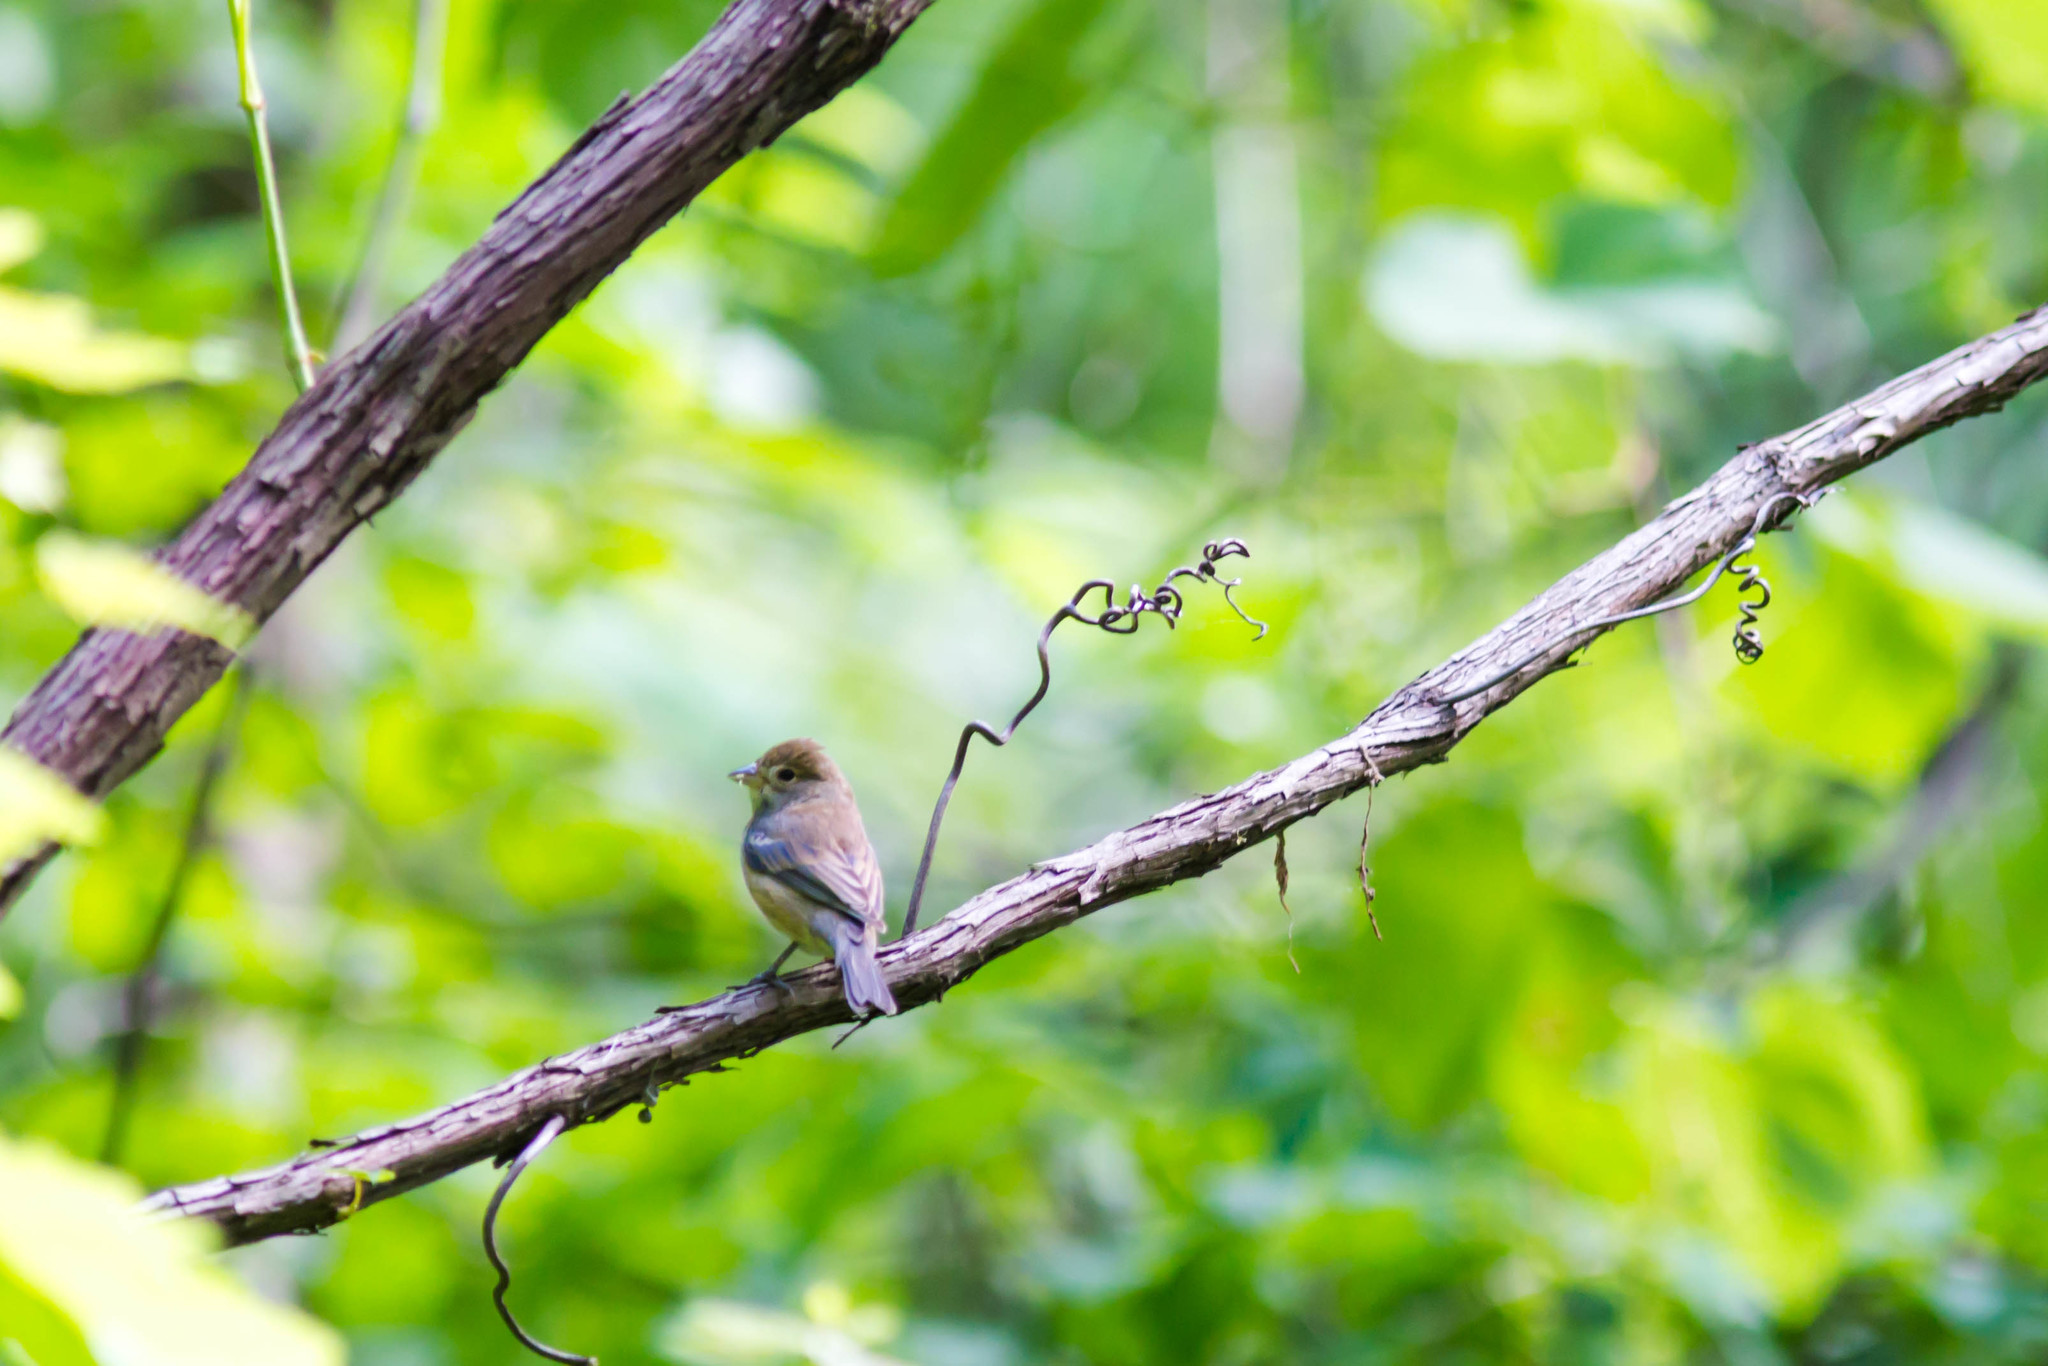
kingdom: Animalia
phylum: Chordata
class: Aves
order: Passeriformes
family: Cardinalidae
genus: Passerina
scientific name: Passerina cyanea
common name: Indigo bunting
